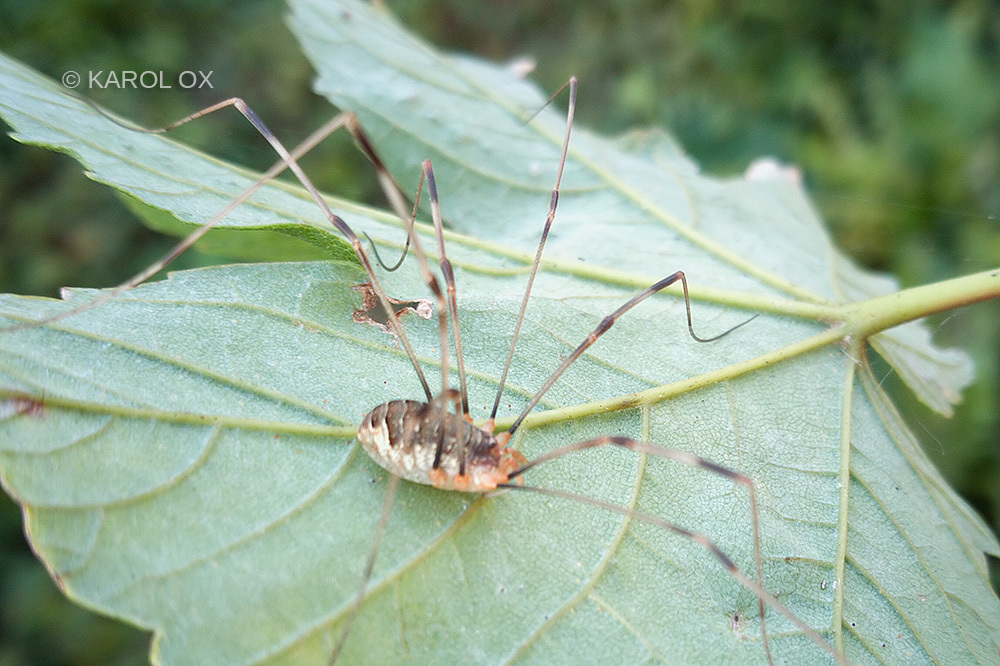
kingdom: Animalia
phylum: Arthropoda
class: Arachnida
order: Opiliones
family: Phalangiidae
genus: Opilio
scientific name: Opilio canestrinii
